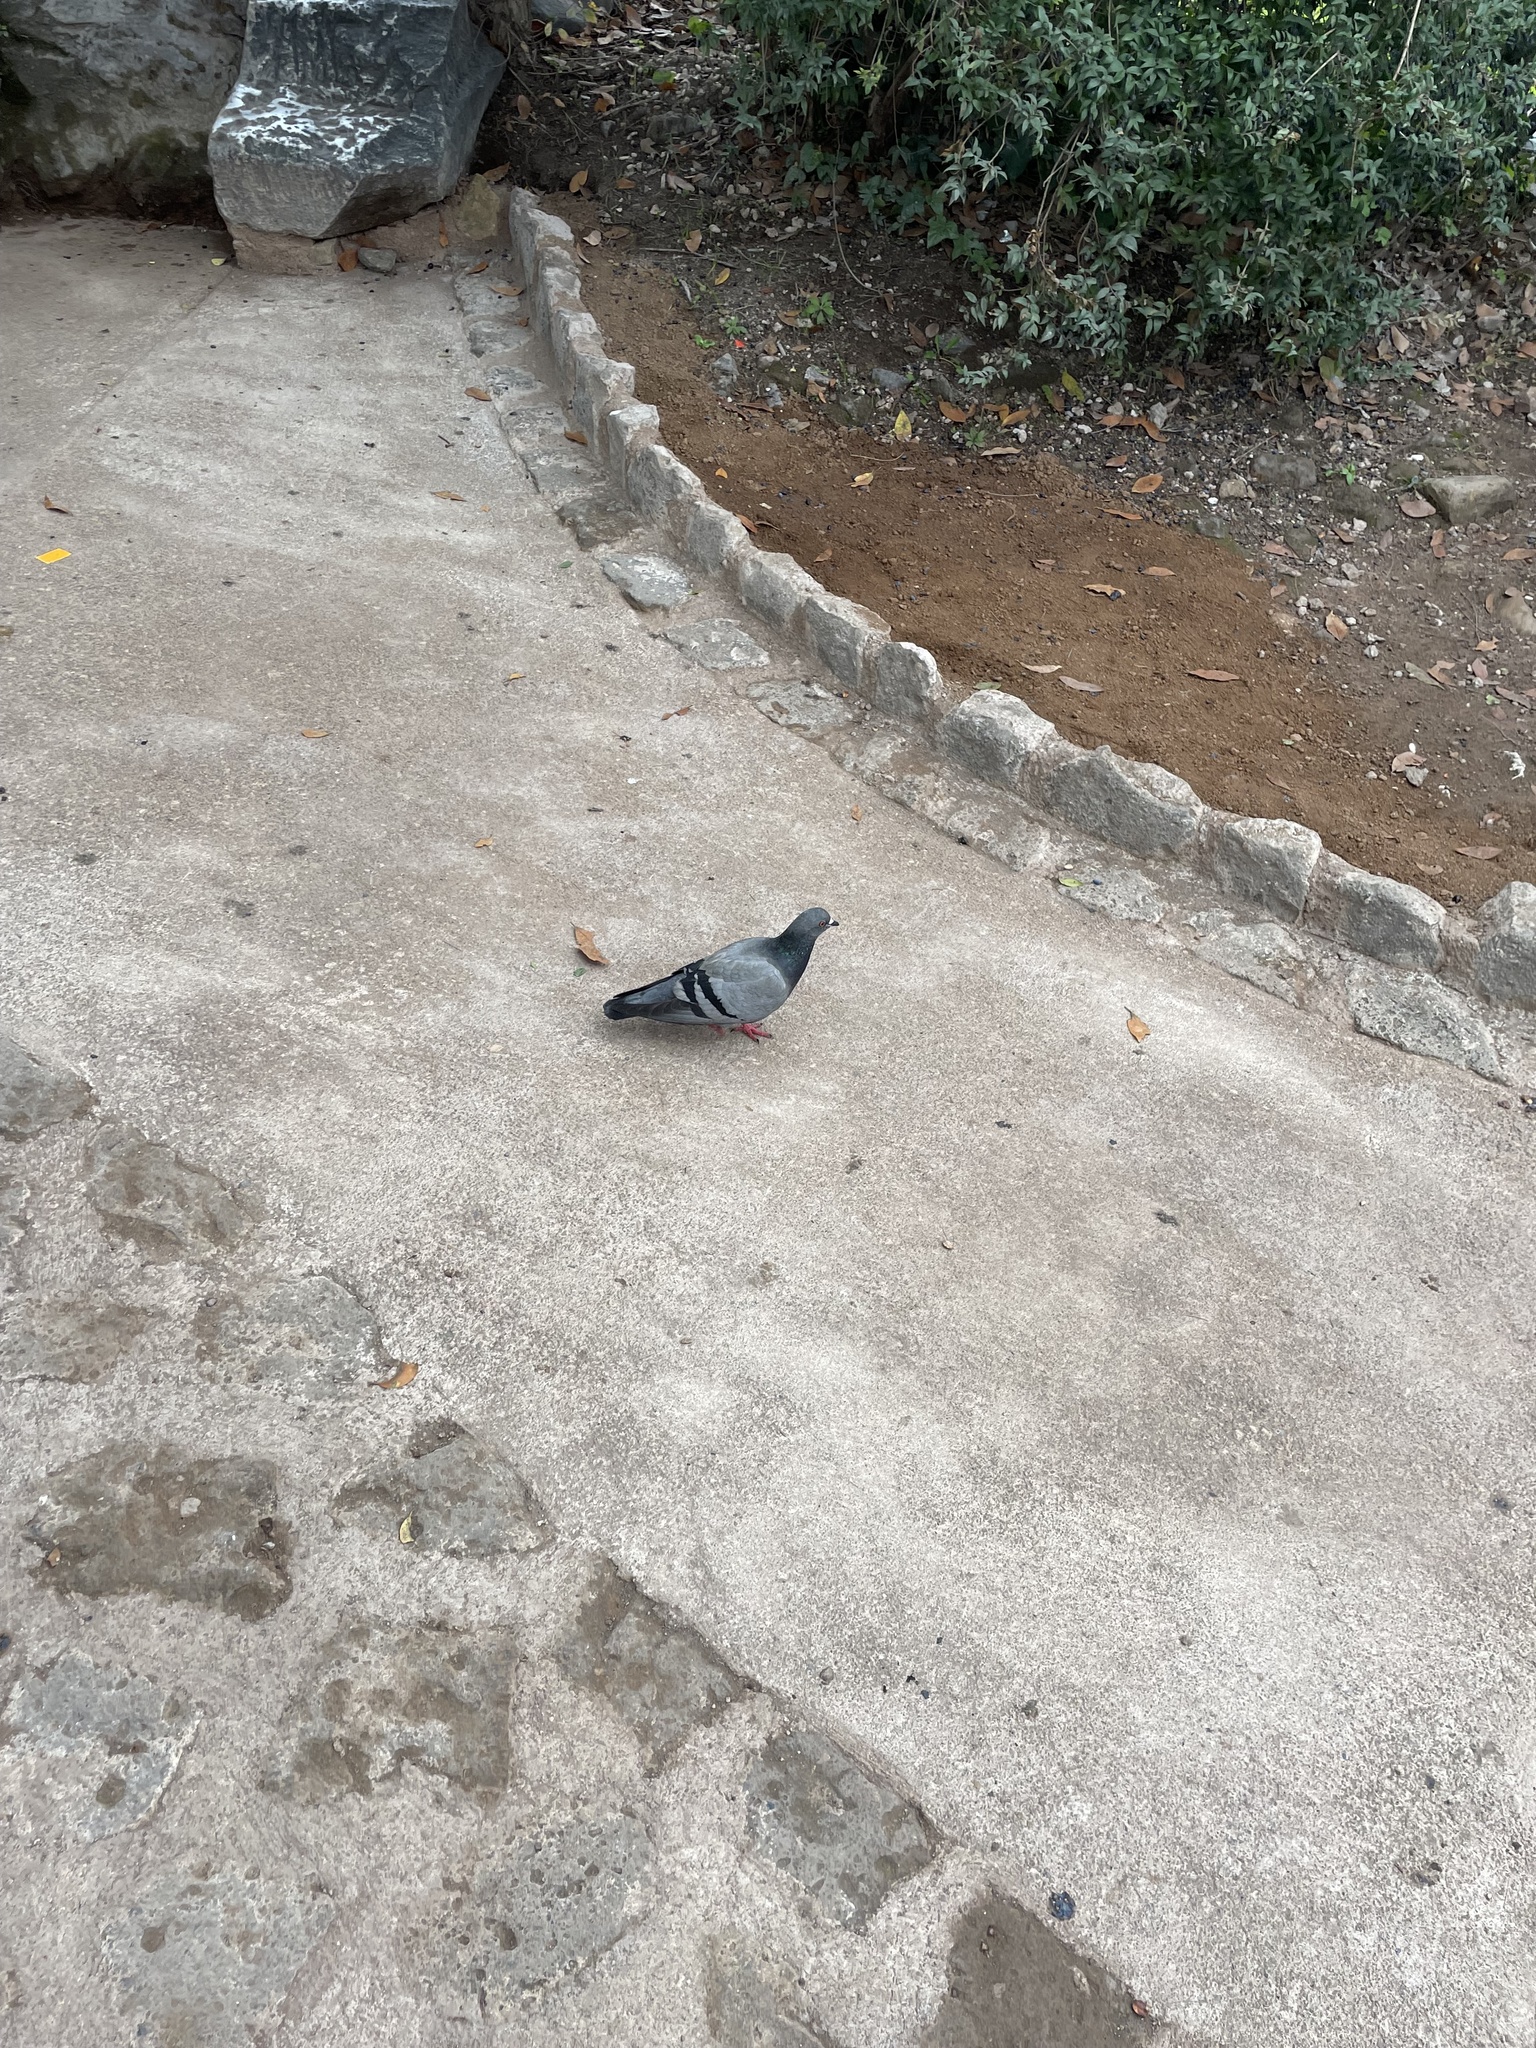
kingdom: Animalia
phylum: Chordata
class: Aves
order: Columbiformes
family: Columbidae
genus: Columba
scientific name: Columba livia
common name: Rock pigeon
